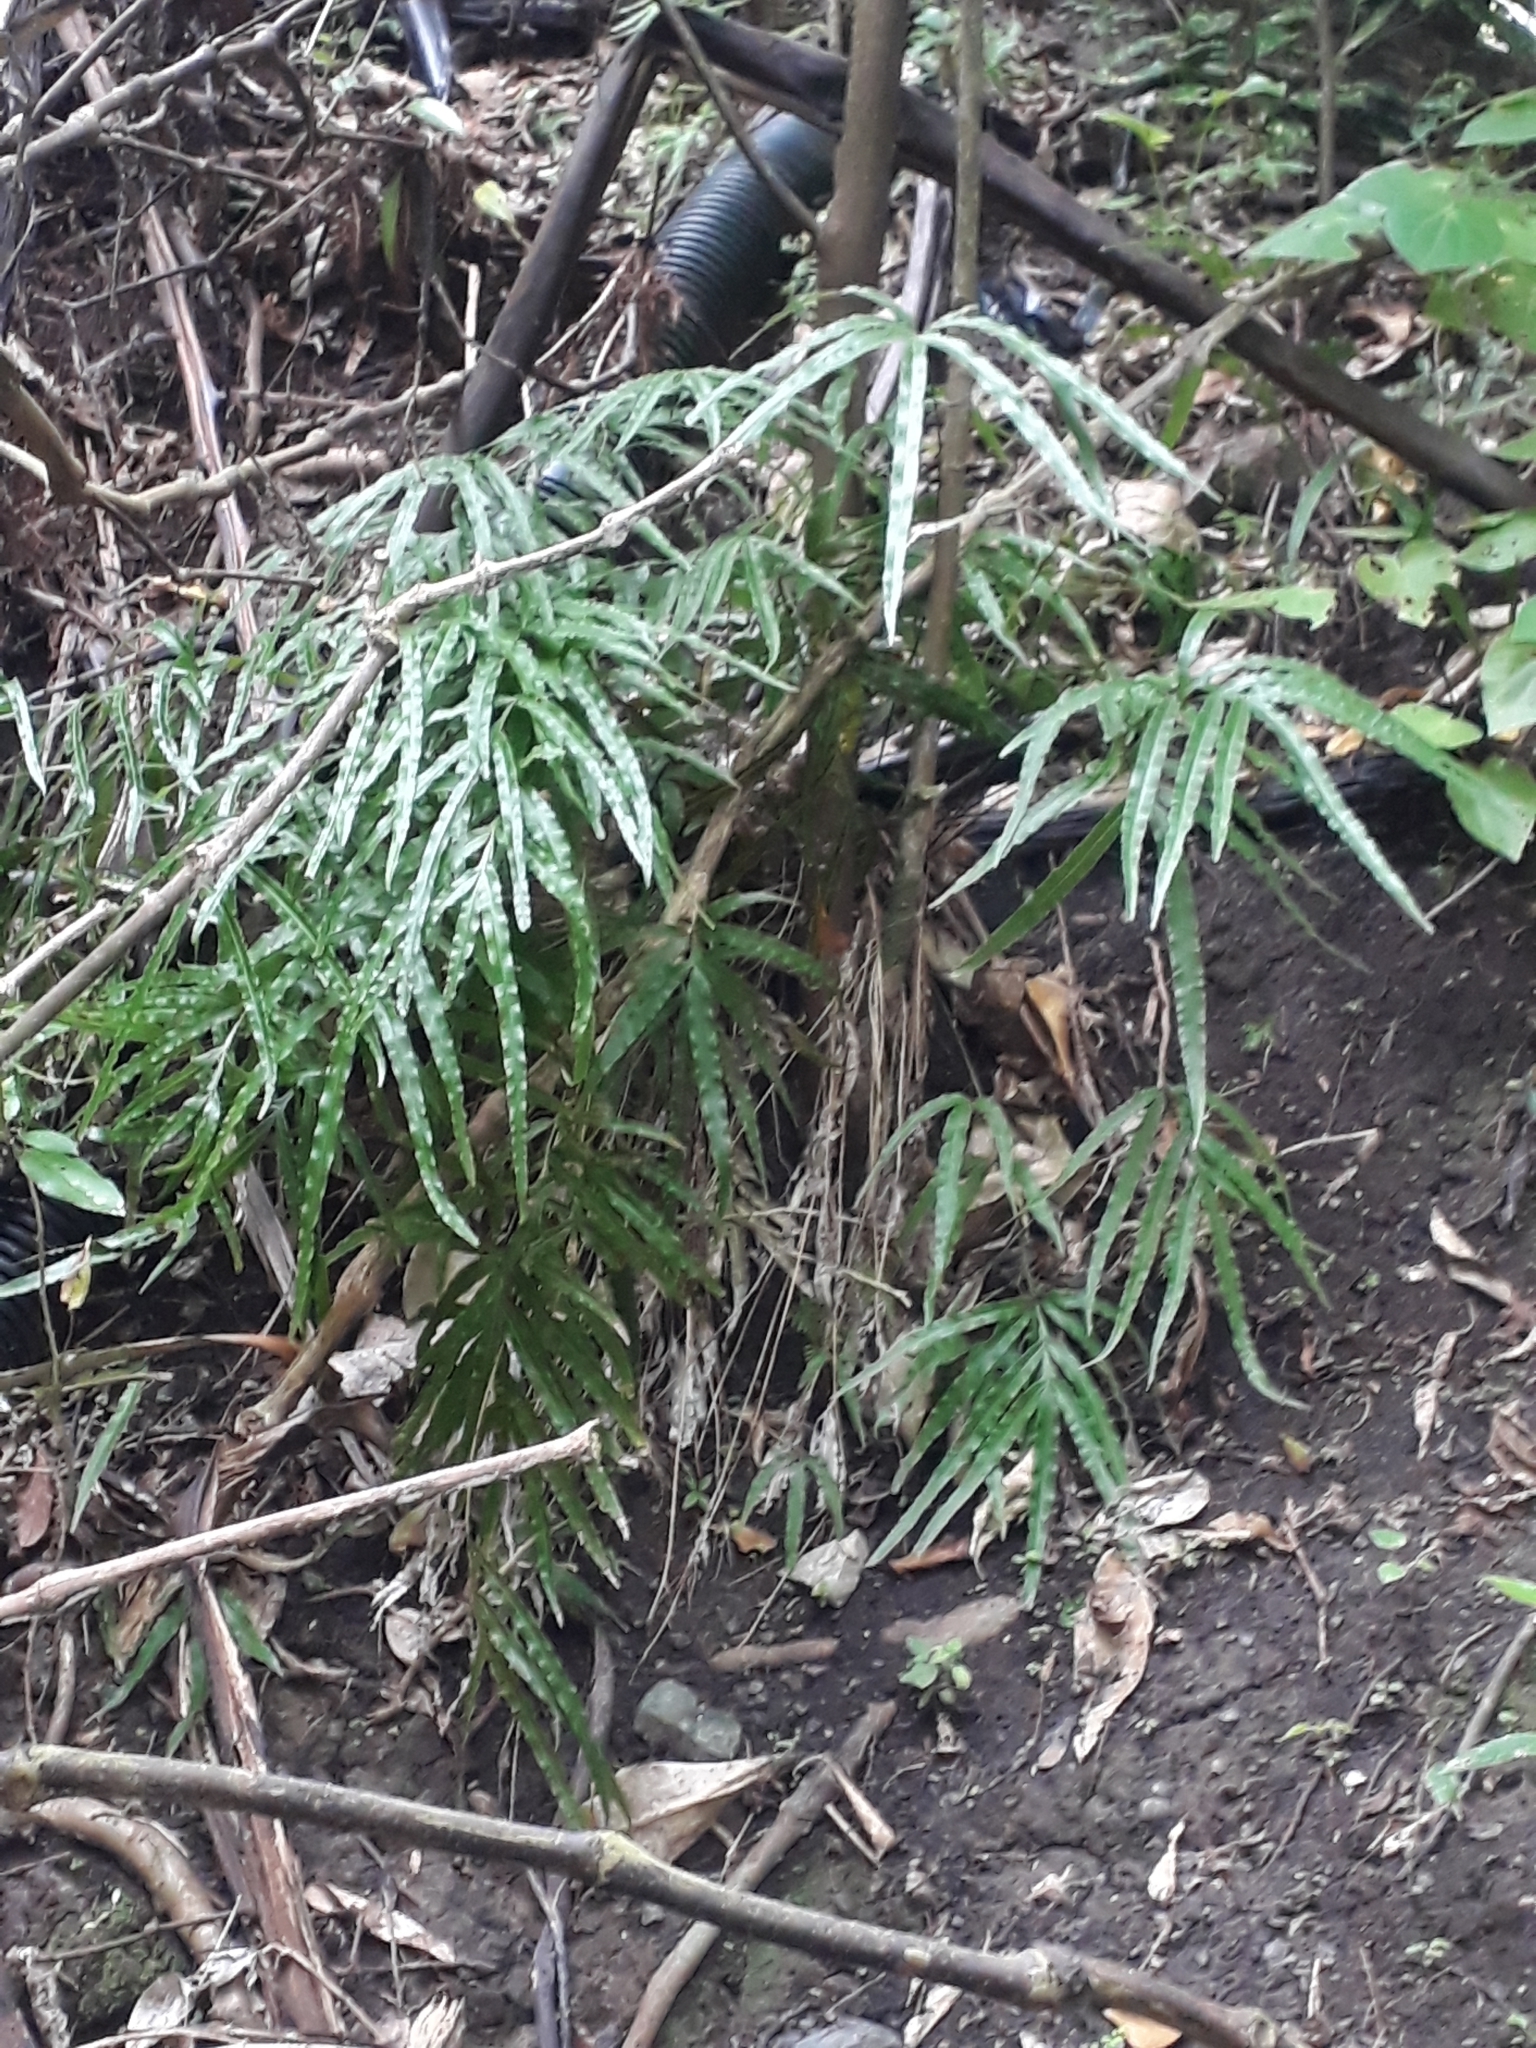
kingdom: Plantae
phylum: Tracheophyta
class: Polypodiopsida
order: Polypodiales
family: Pteridaceae
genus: Pteris
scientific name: Pteris cretica
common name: Ribbon fern
